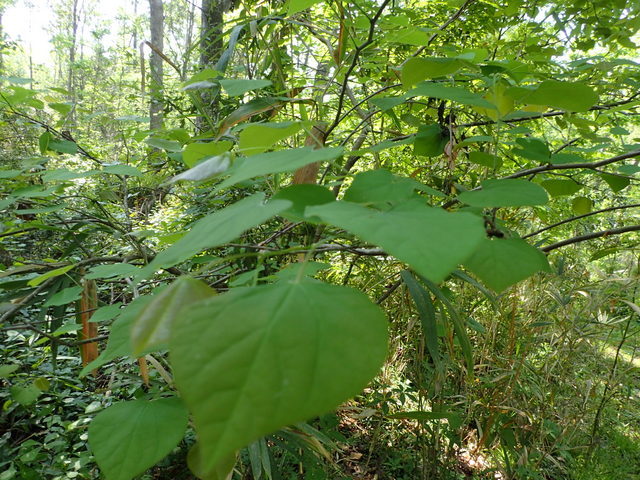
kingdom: Plantae
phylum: Tracheophyta
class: Magnoliopsida
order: Fabales
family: Fabaceae
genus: Cercis
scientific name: Cercis canadensis
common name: Eastern redbud
